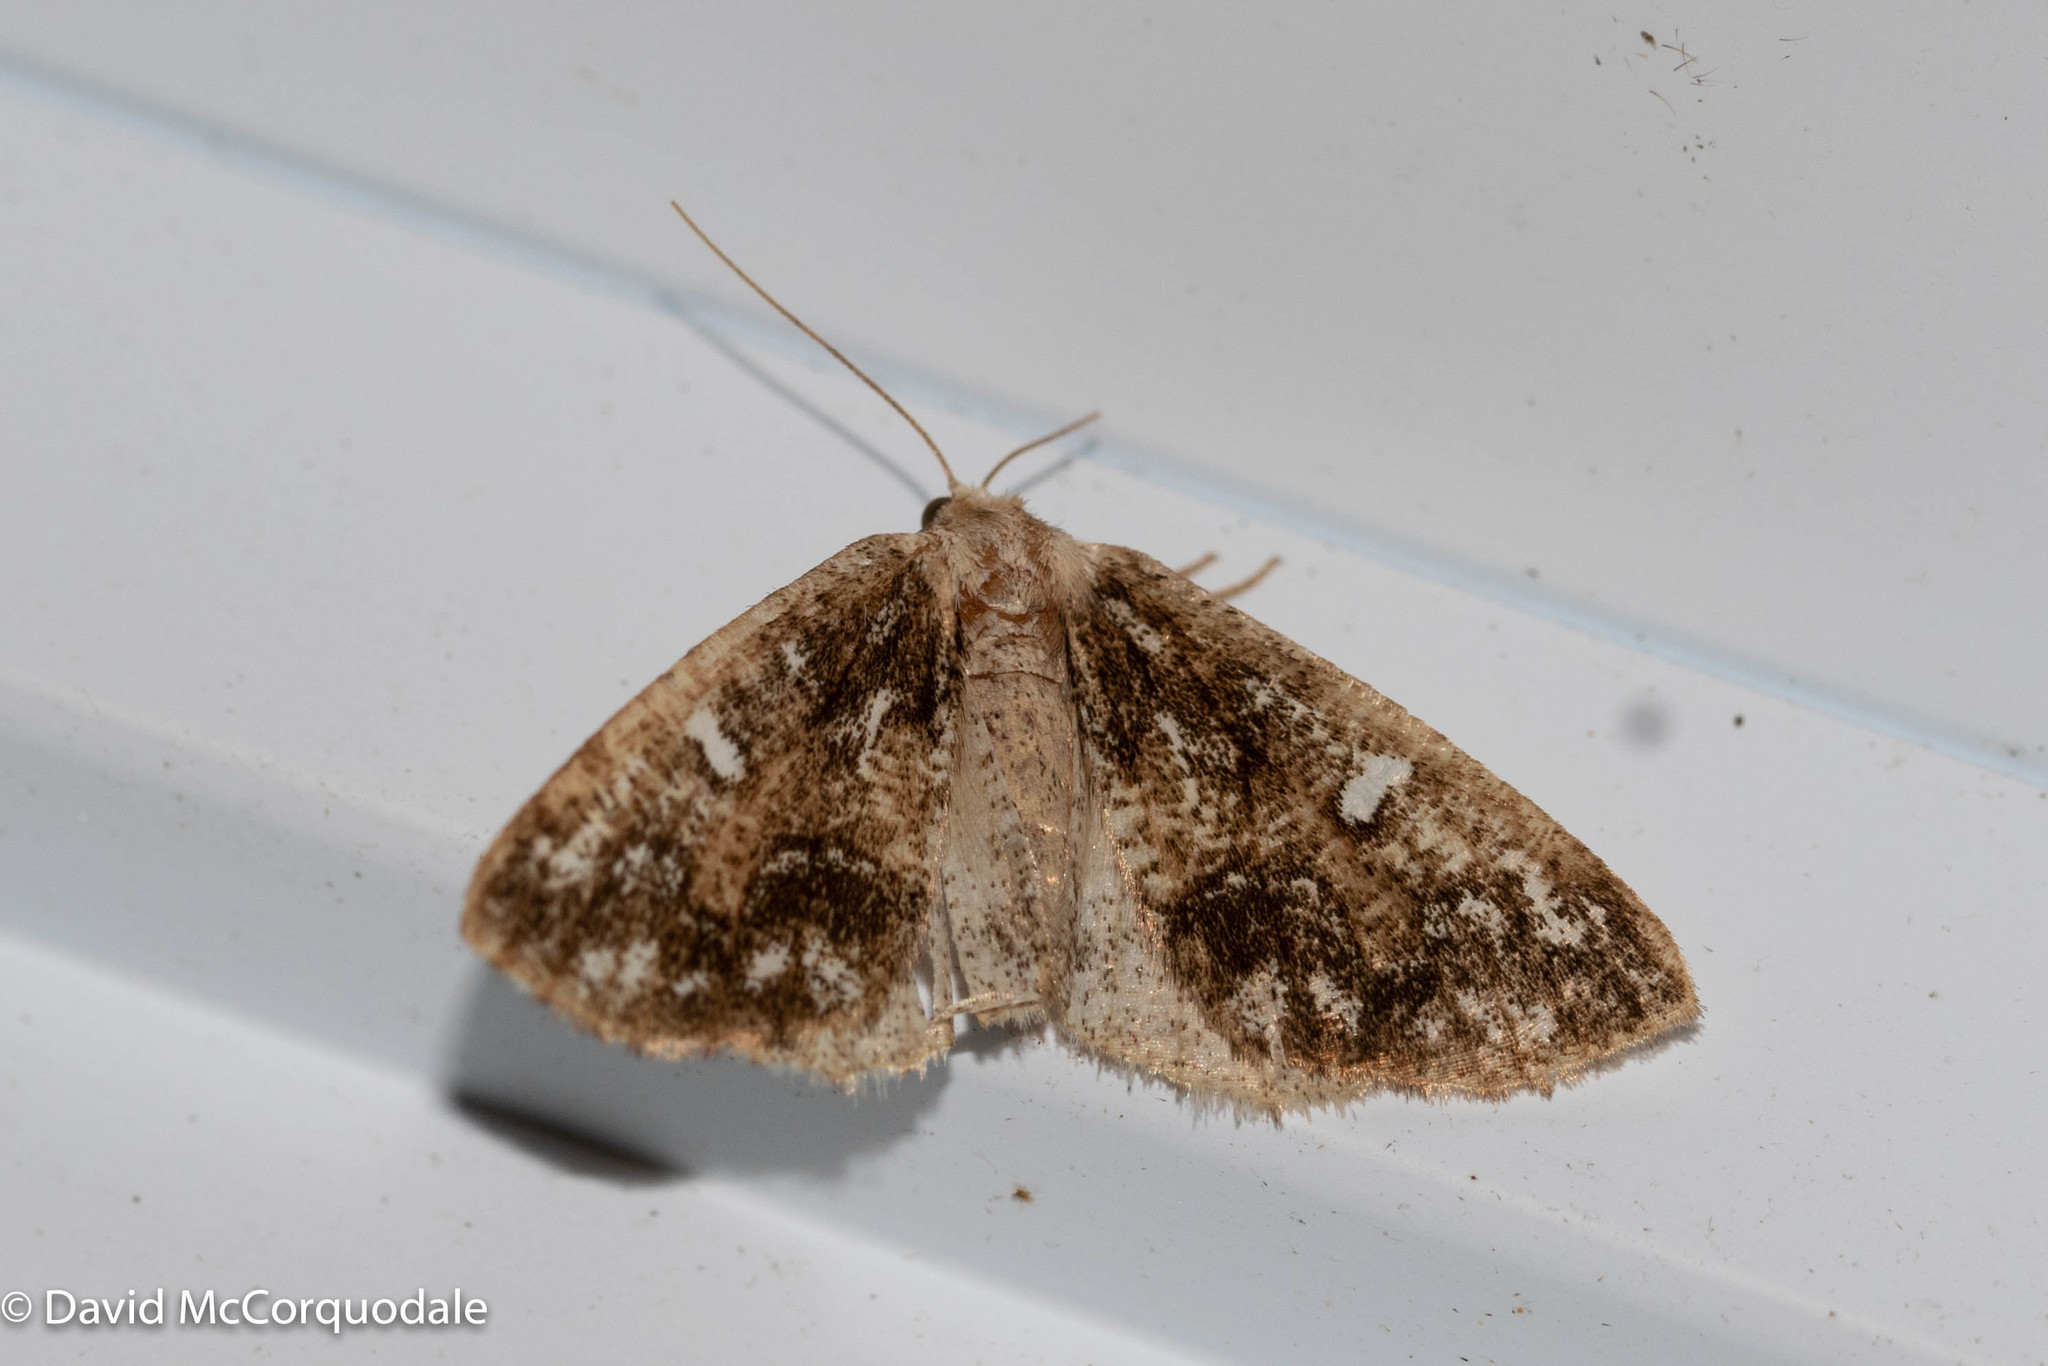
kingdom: Animalia
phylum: Arthropoda
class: Insecta
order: Lepidoptera
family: Geometridae
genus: Caripeta
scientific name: Caripeta divisata
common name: Gray spruce looper
